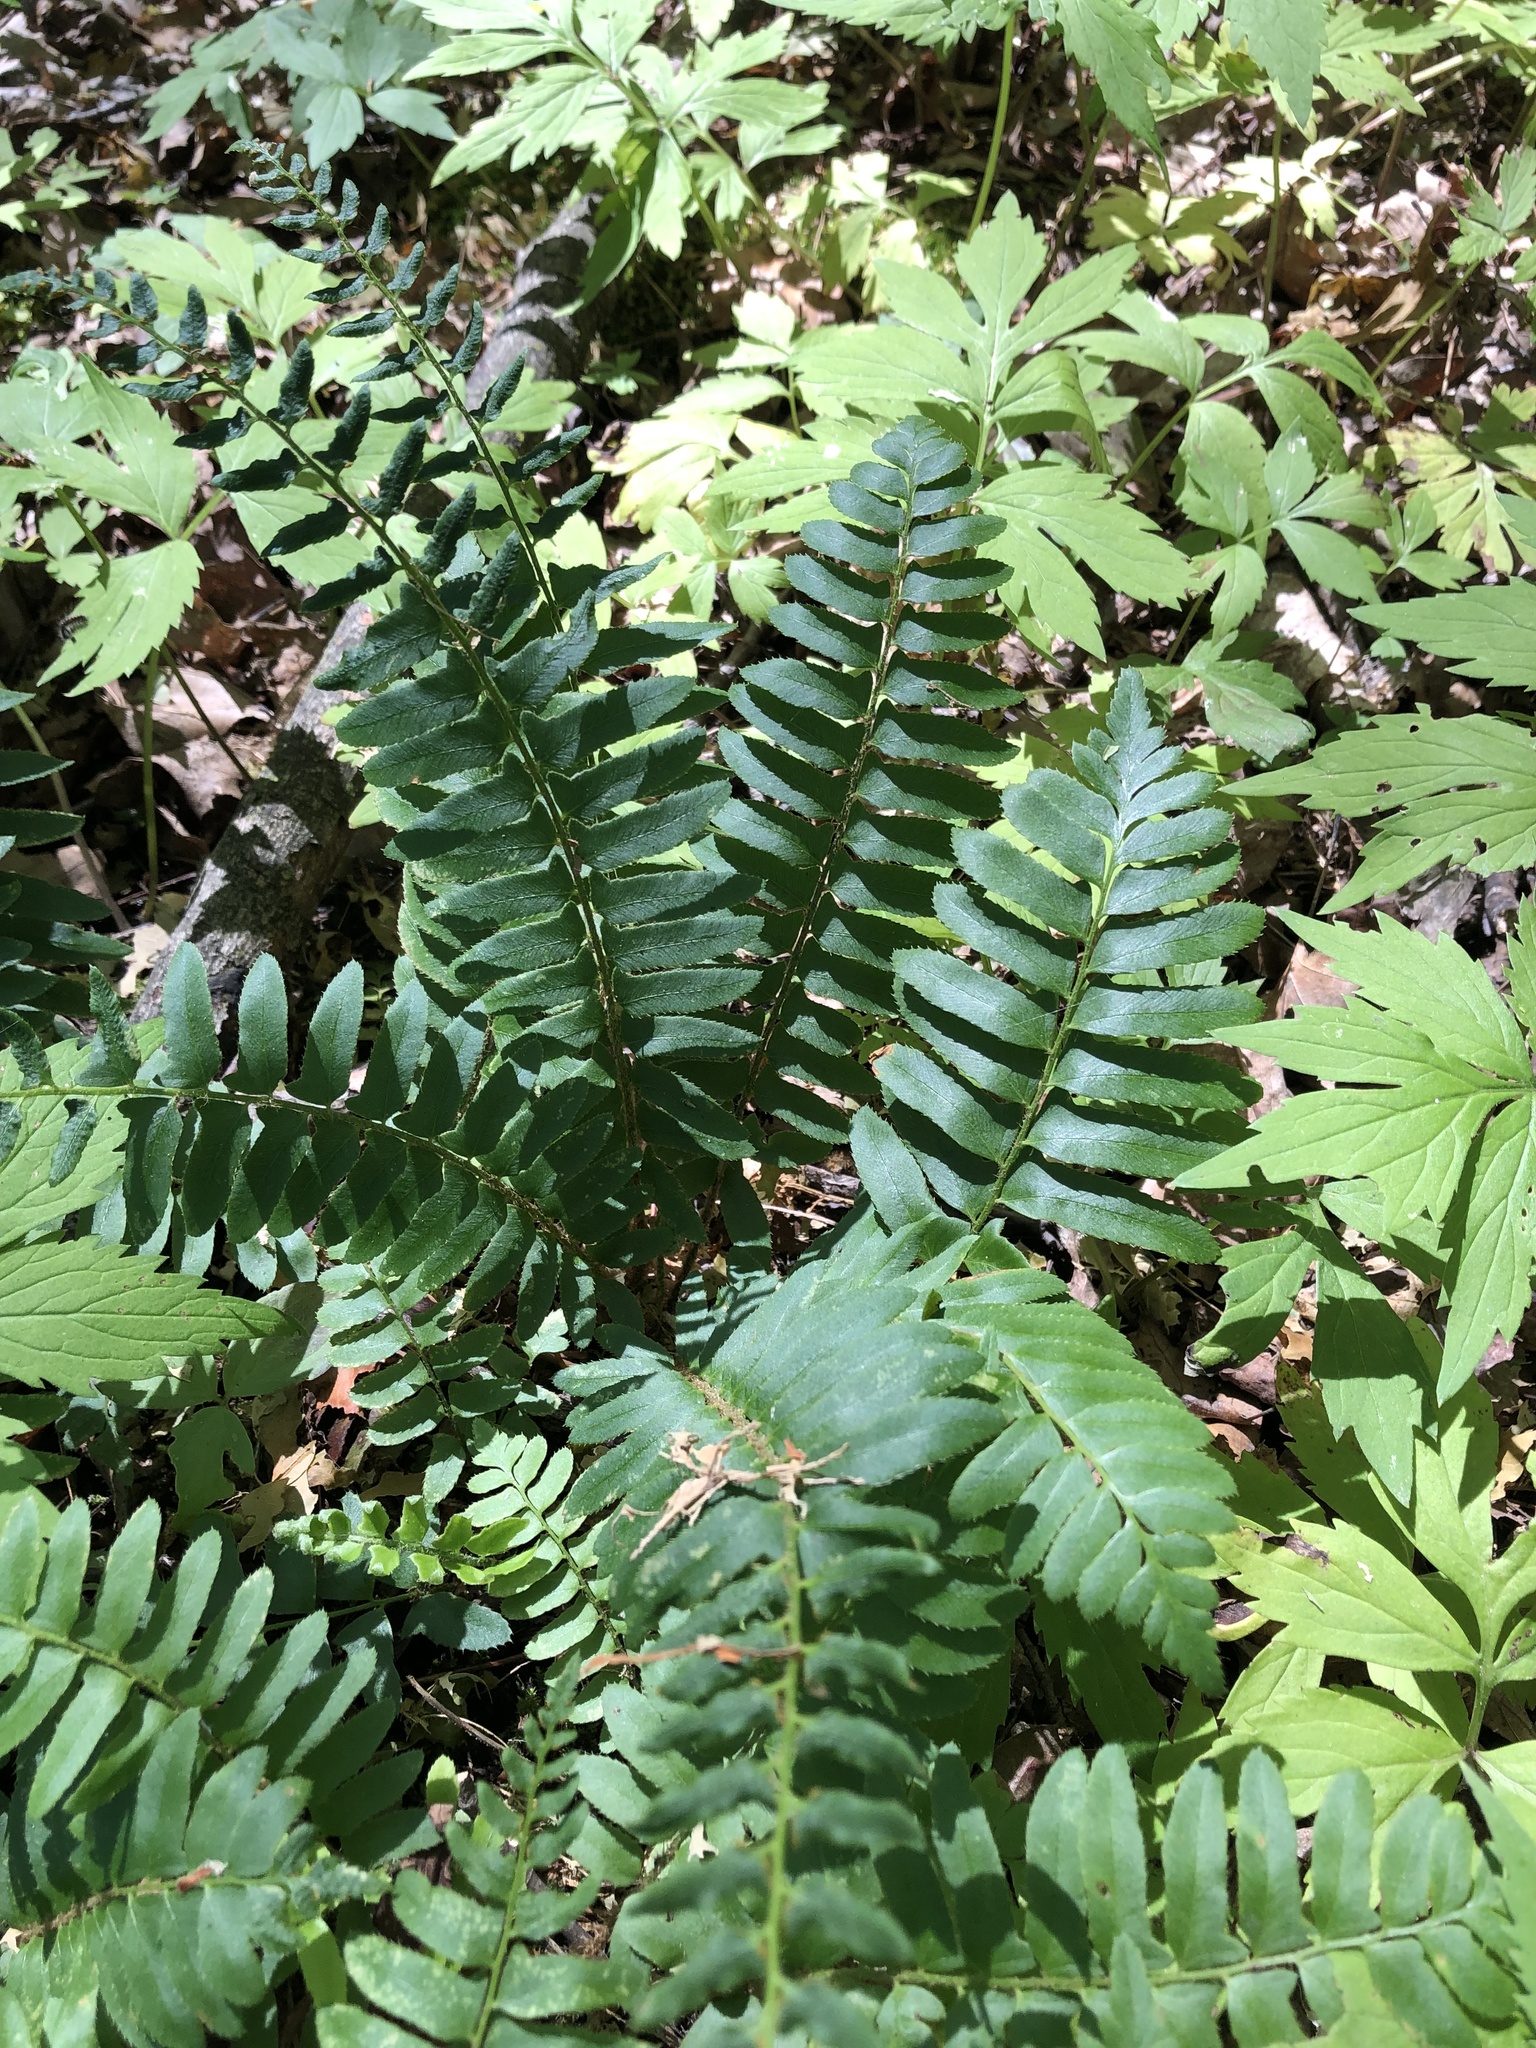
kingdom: Plantae
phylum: Tracheophyta
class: Polypodiopsida
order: Polypodiales
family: Dryopteridaceae
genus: Polystichum
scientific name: Polystichum acrostichoides
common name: Christmas fern
